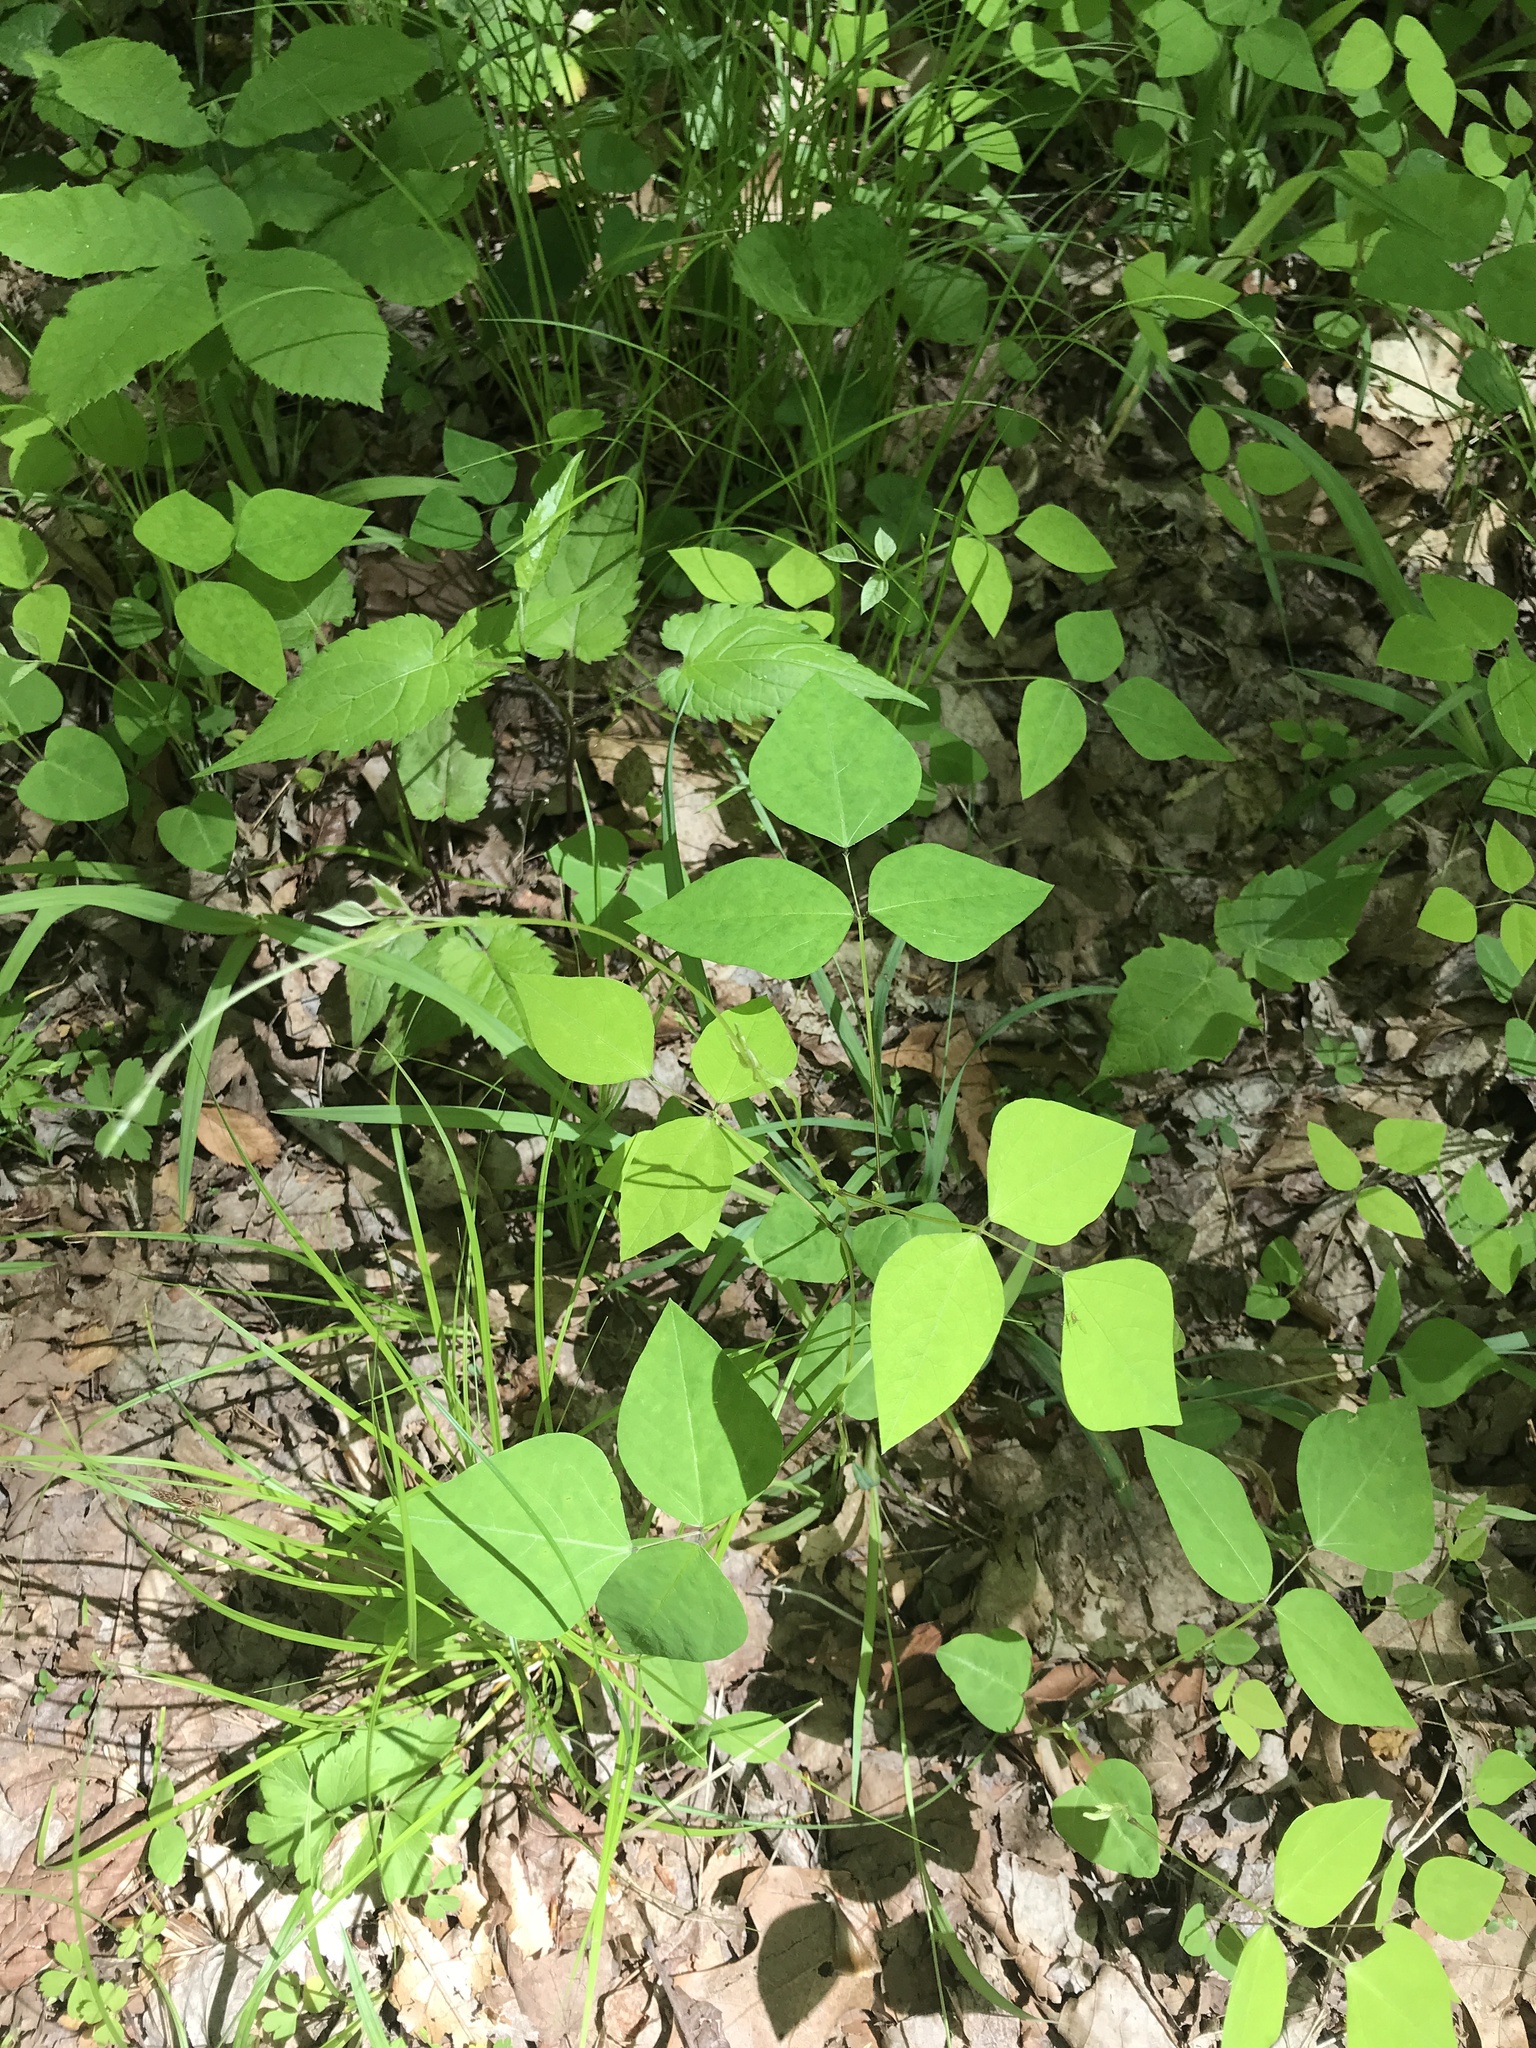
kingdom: Plantae
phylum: Tracheophyta
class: Magnoliopsida
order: Fabales
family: Fabaceae
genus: Amphicarpaea
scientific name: Amphicarpaea bracteata
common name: American hog peanut
